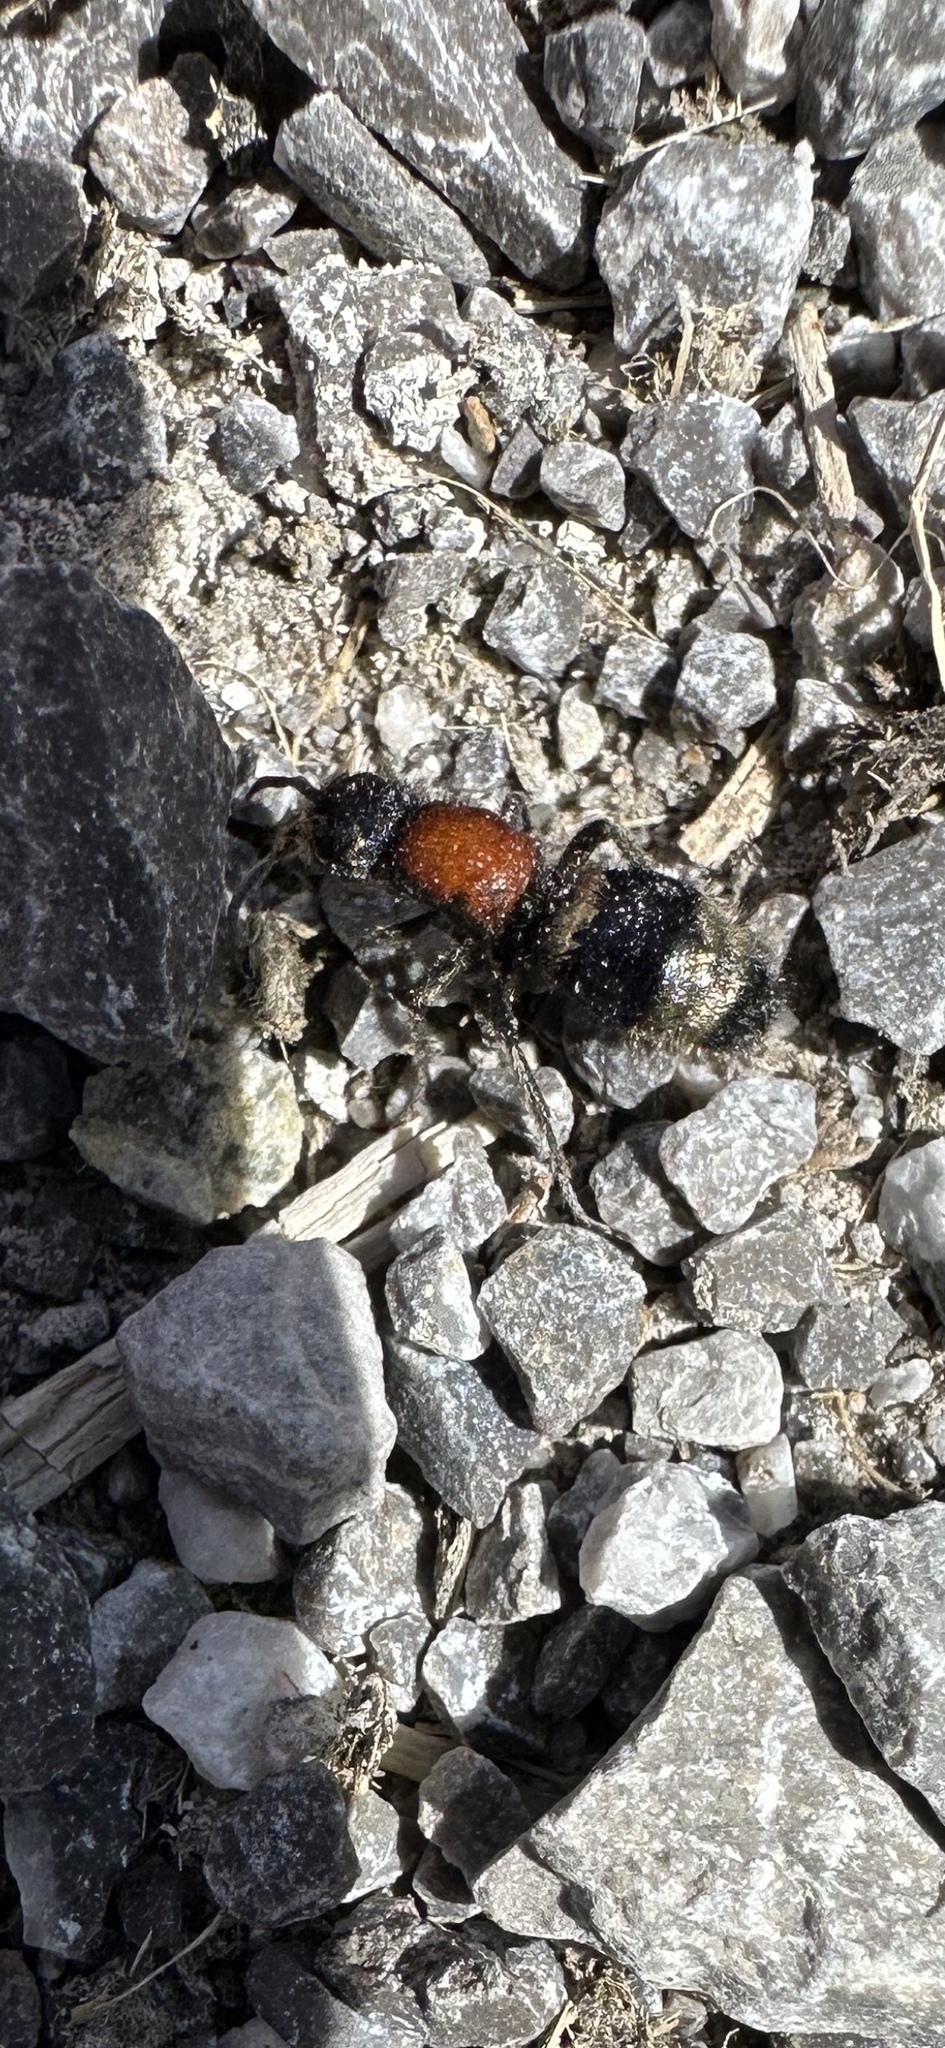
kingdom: Animalia
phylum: Arthropoda
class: Insecta
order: Hymenoptera
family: Mutillidae
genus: Mutilla
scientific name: Mutilla europaea
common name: Large velvet ant
